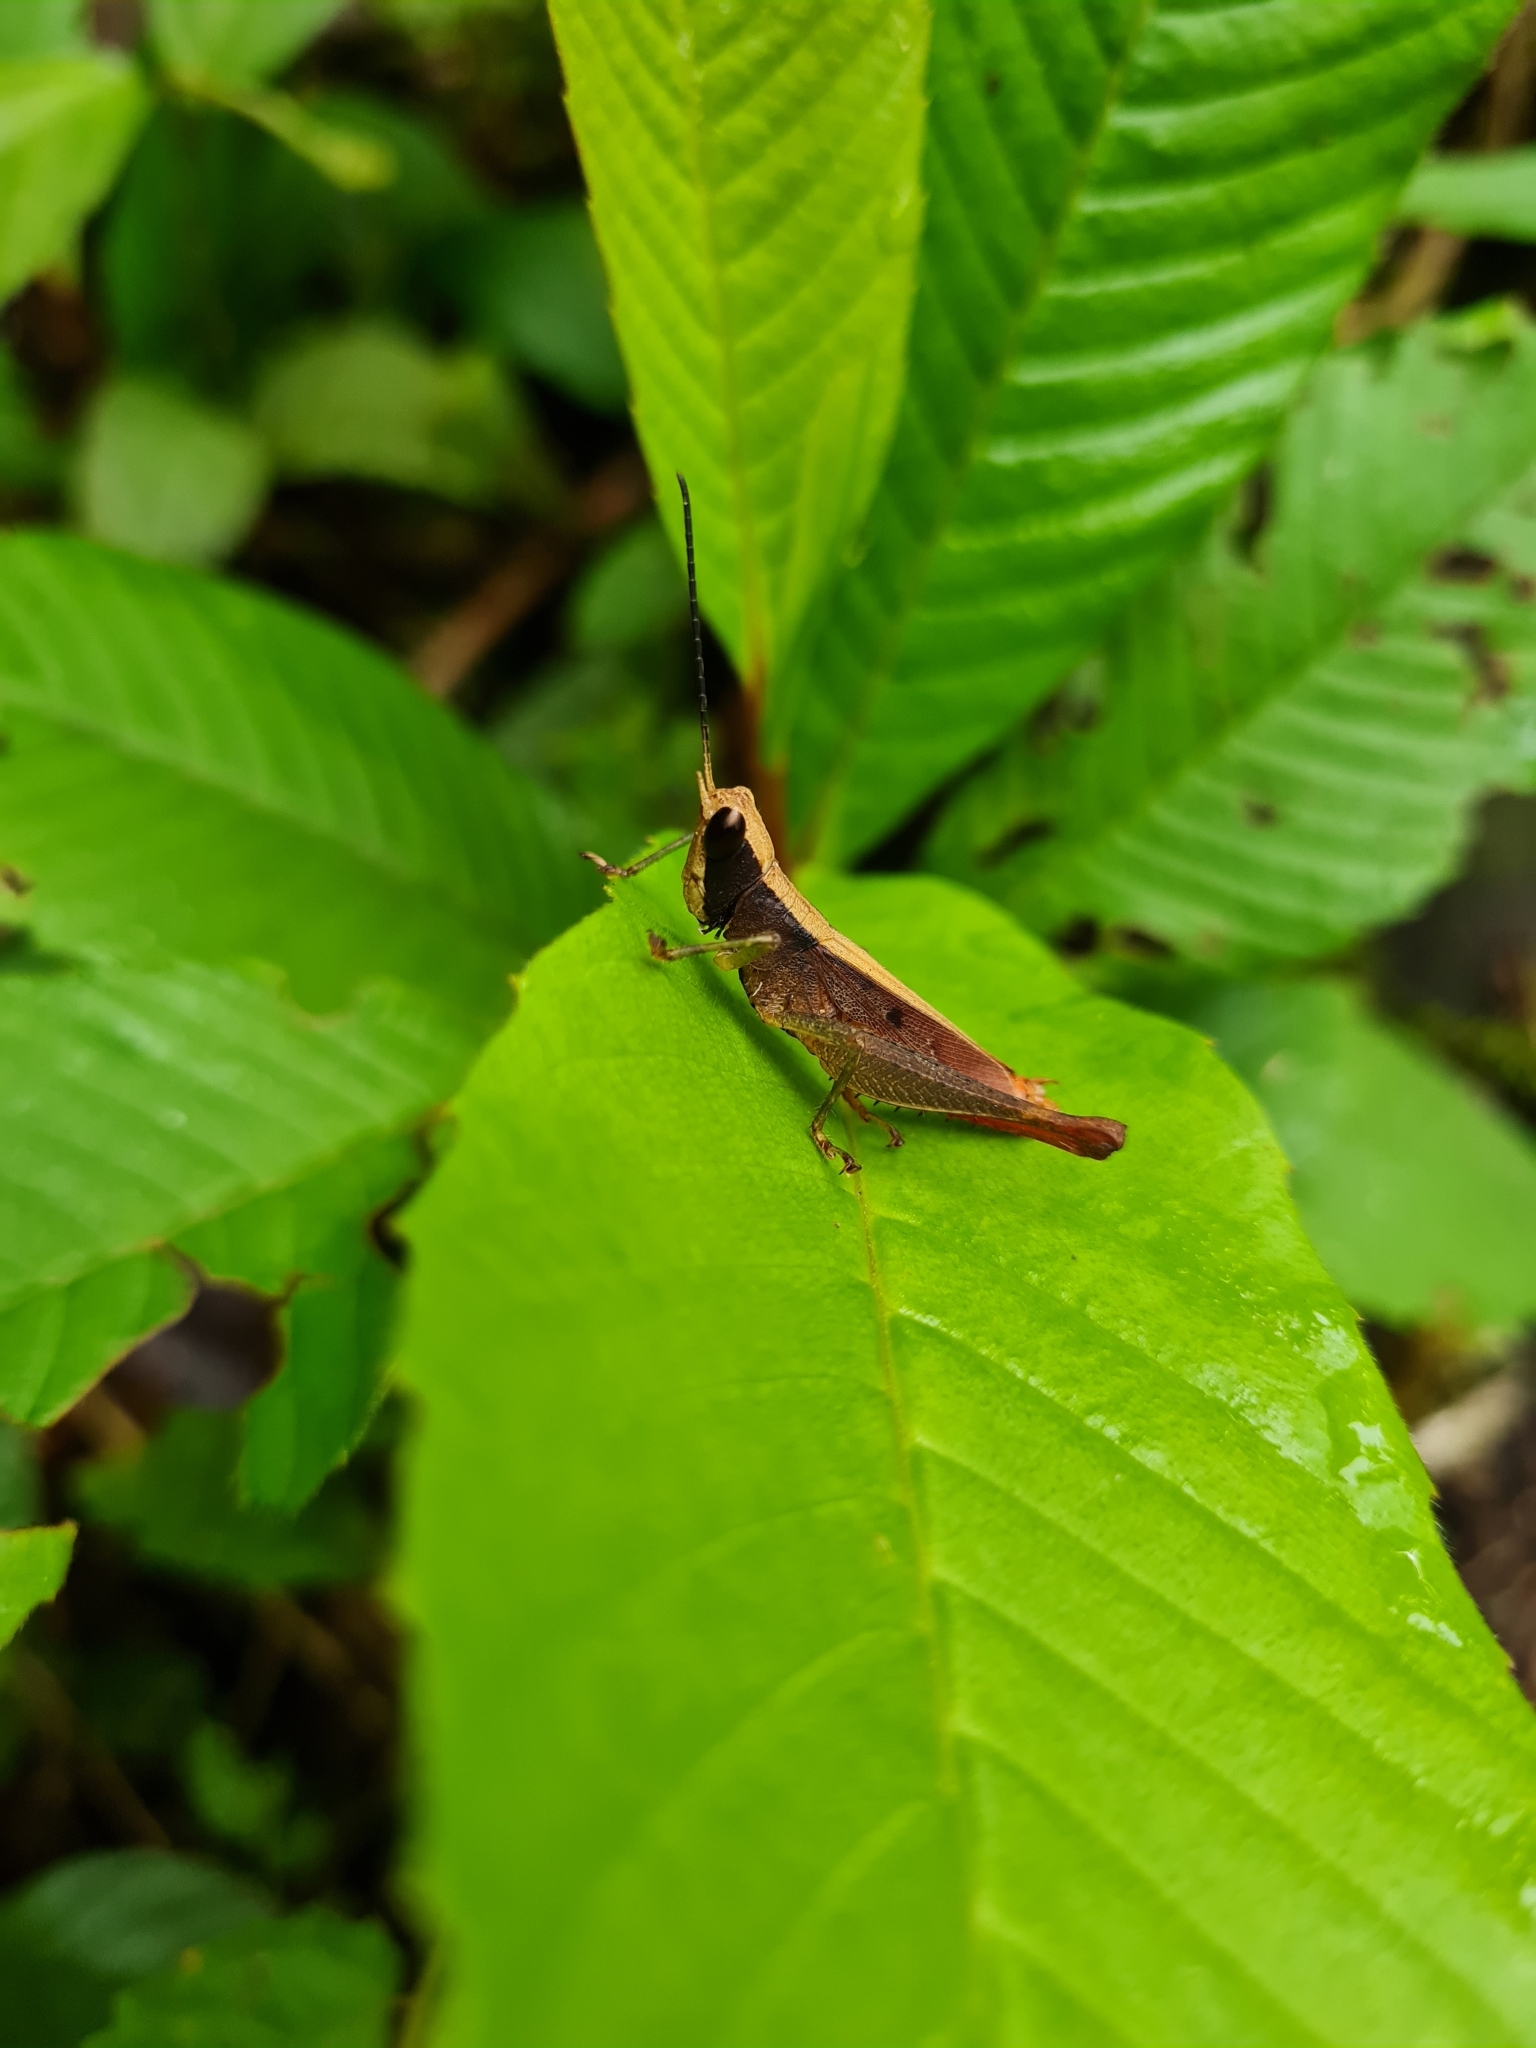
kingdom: Animalia
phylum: Arthropoda
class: Insecta
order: Orthoptera
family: Romaleidae
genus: Maculiparia
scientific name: Maculiparia rotundata
